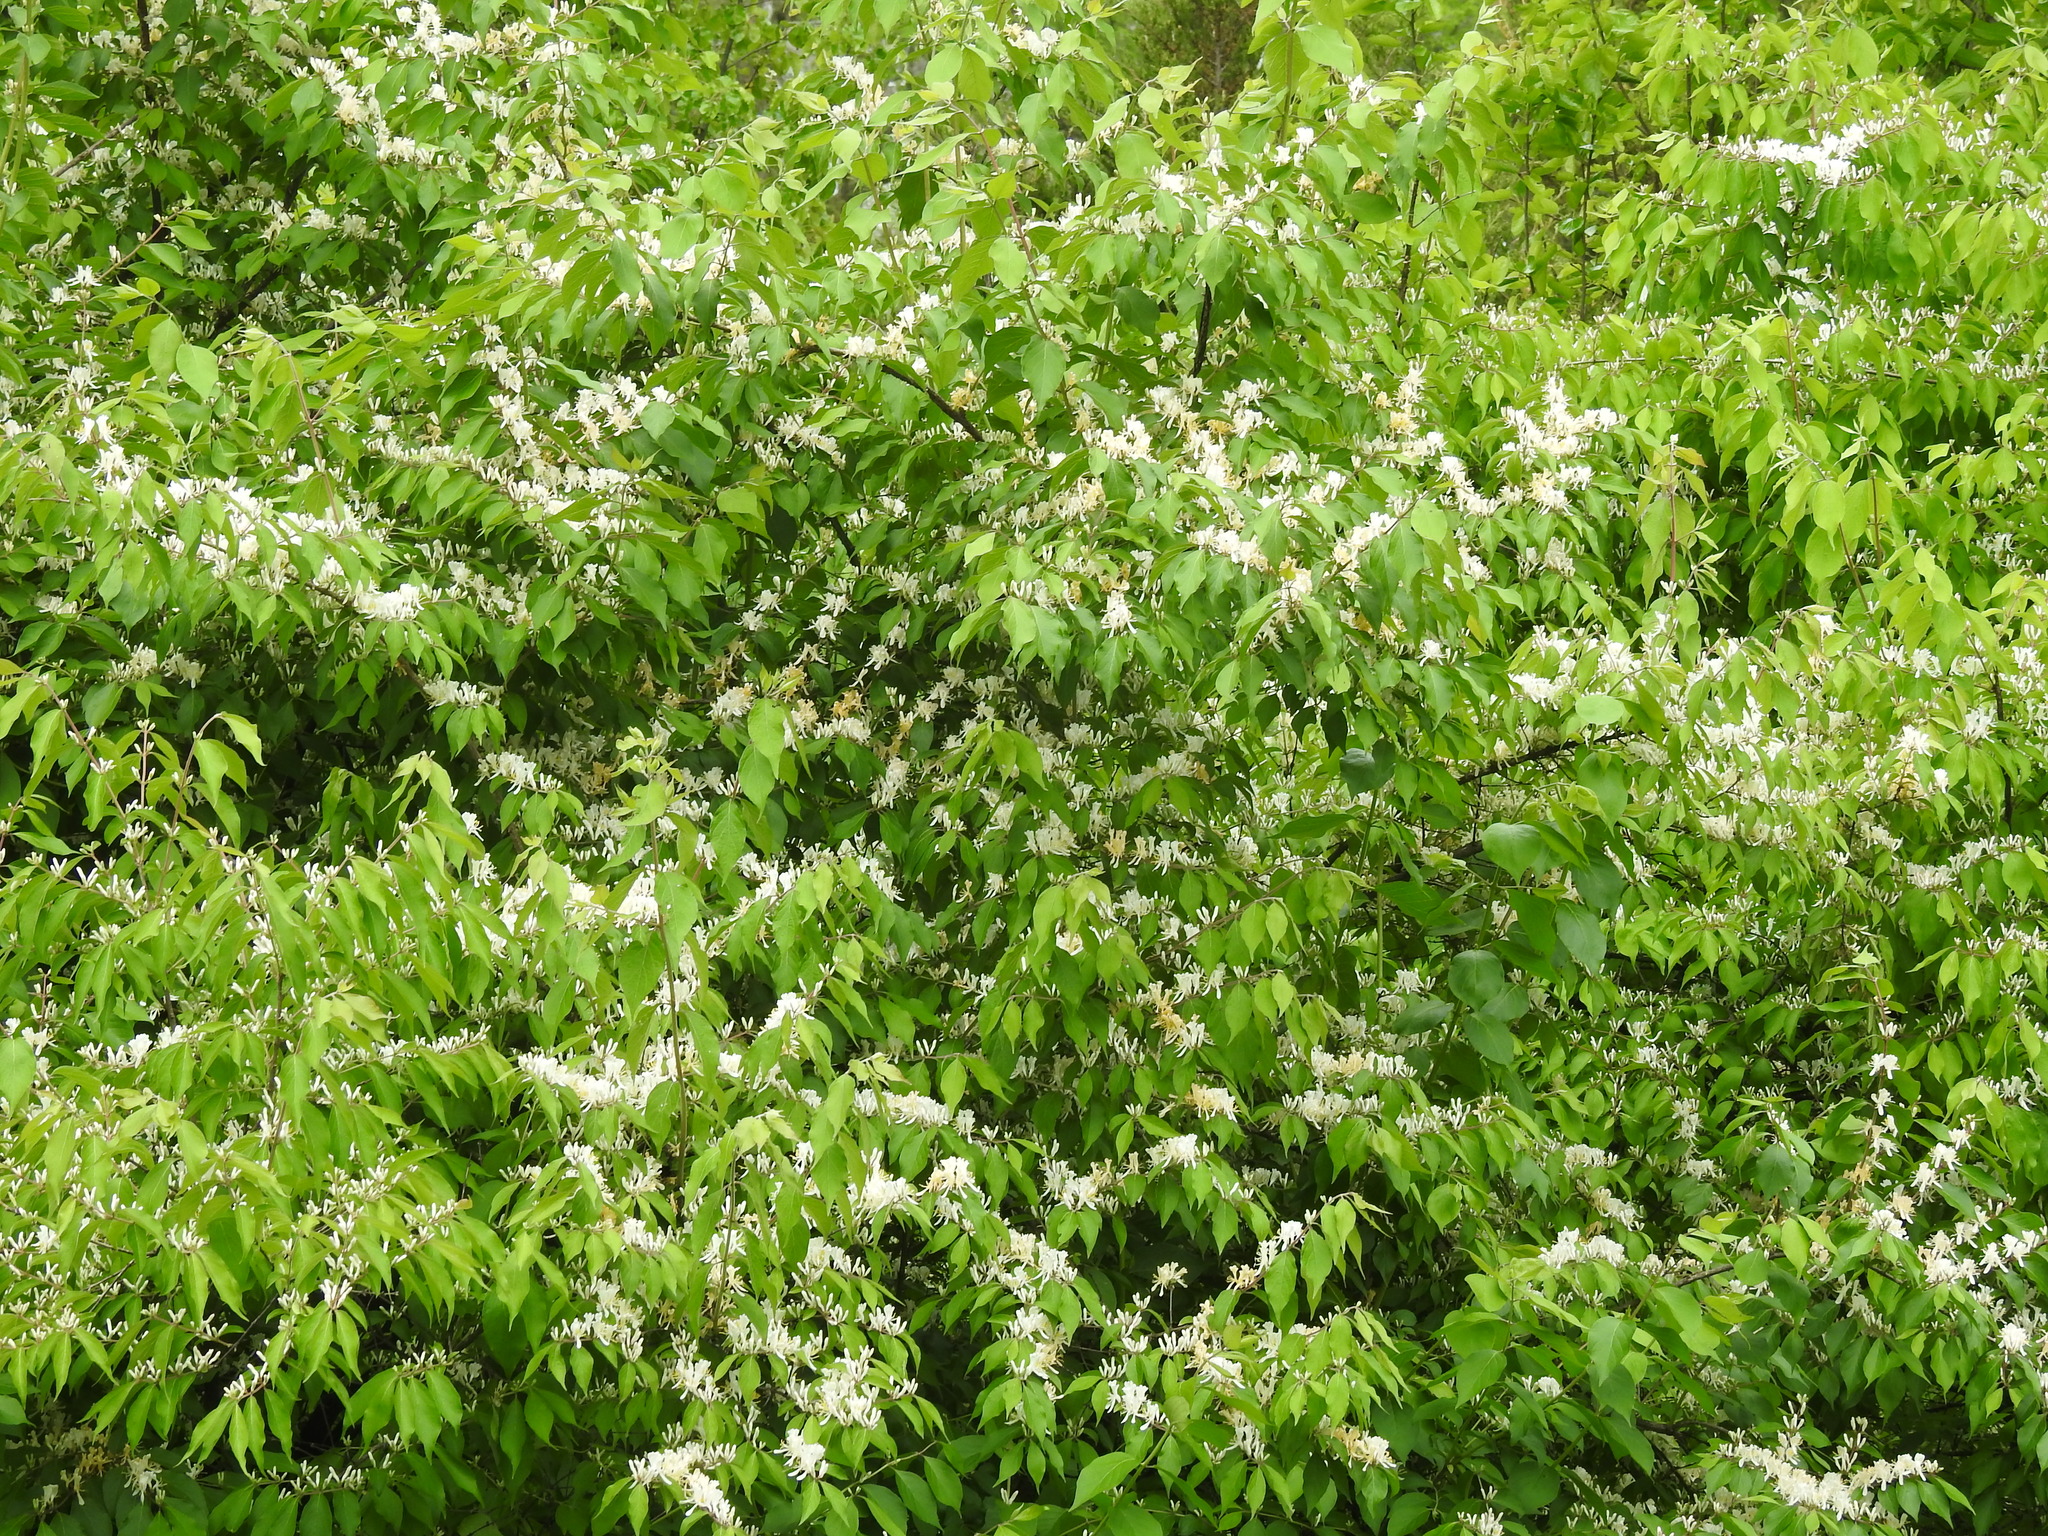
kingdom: Plantae
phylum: Tracheophyta
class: Magnoliopsida
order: Dipsacales
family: Caprifoliaceae
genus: Lonicera
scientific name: Lonicera maackii
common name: Amur honeysuckle
